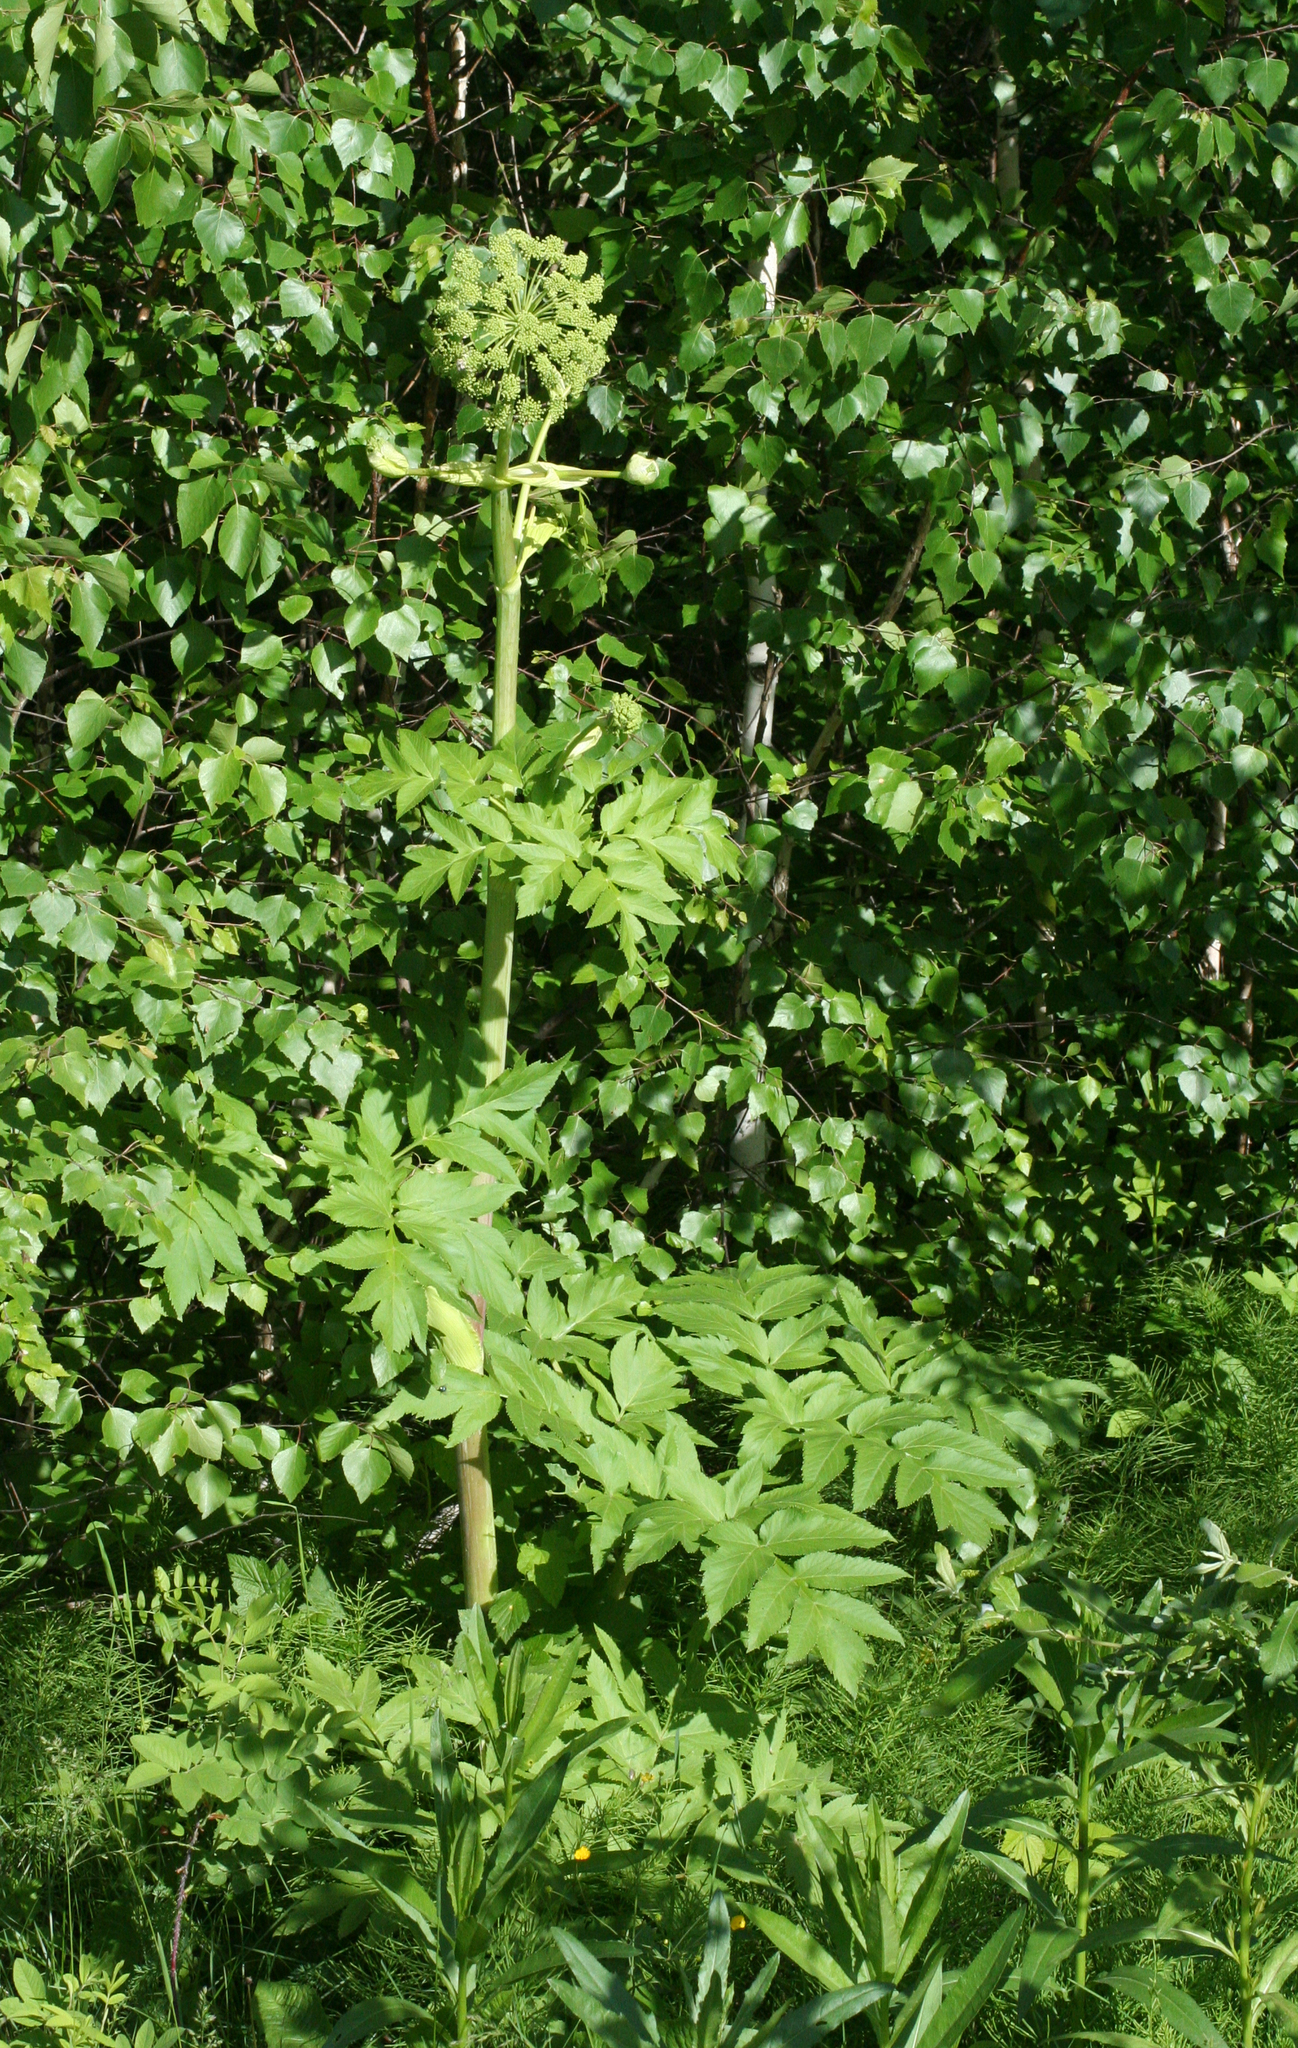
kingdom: Plantae
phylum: Tracheophyta
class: Magnoliopsida
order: Apiales
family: Apiaceae
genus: Angelica
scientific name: Angelica decurrens
